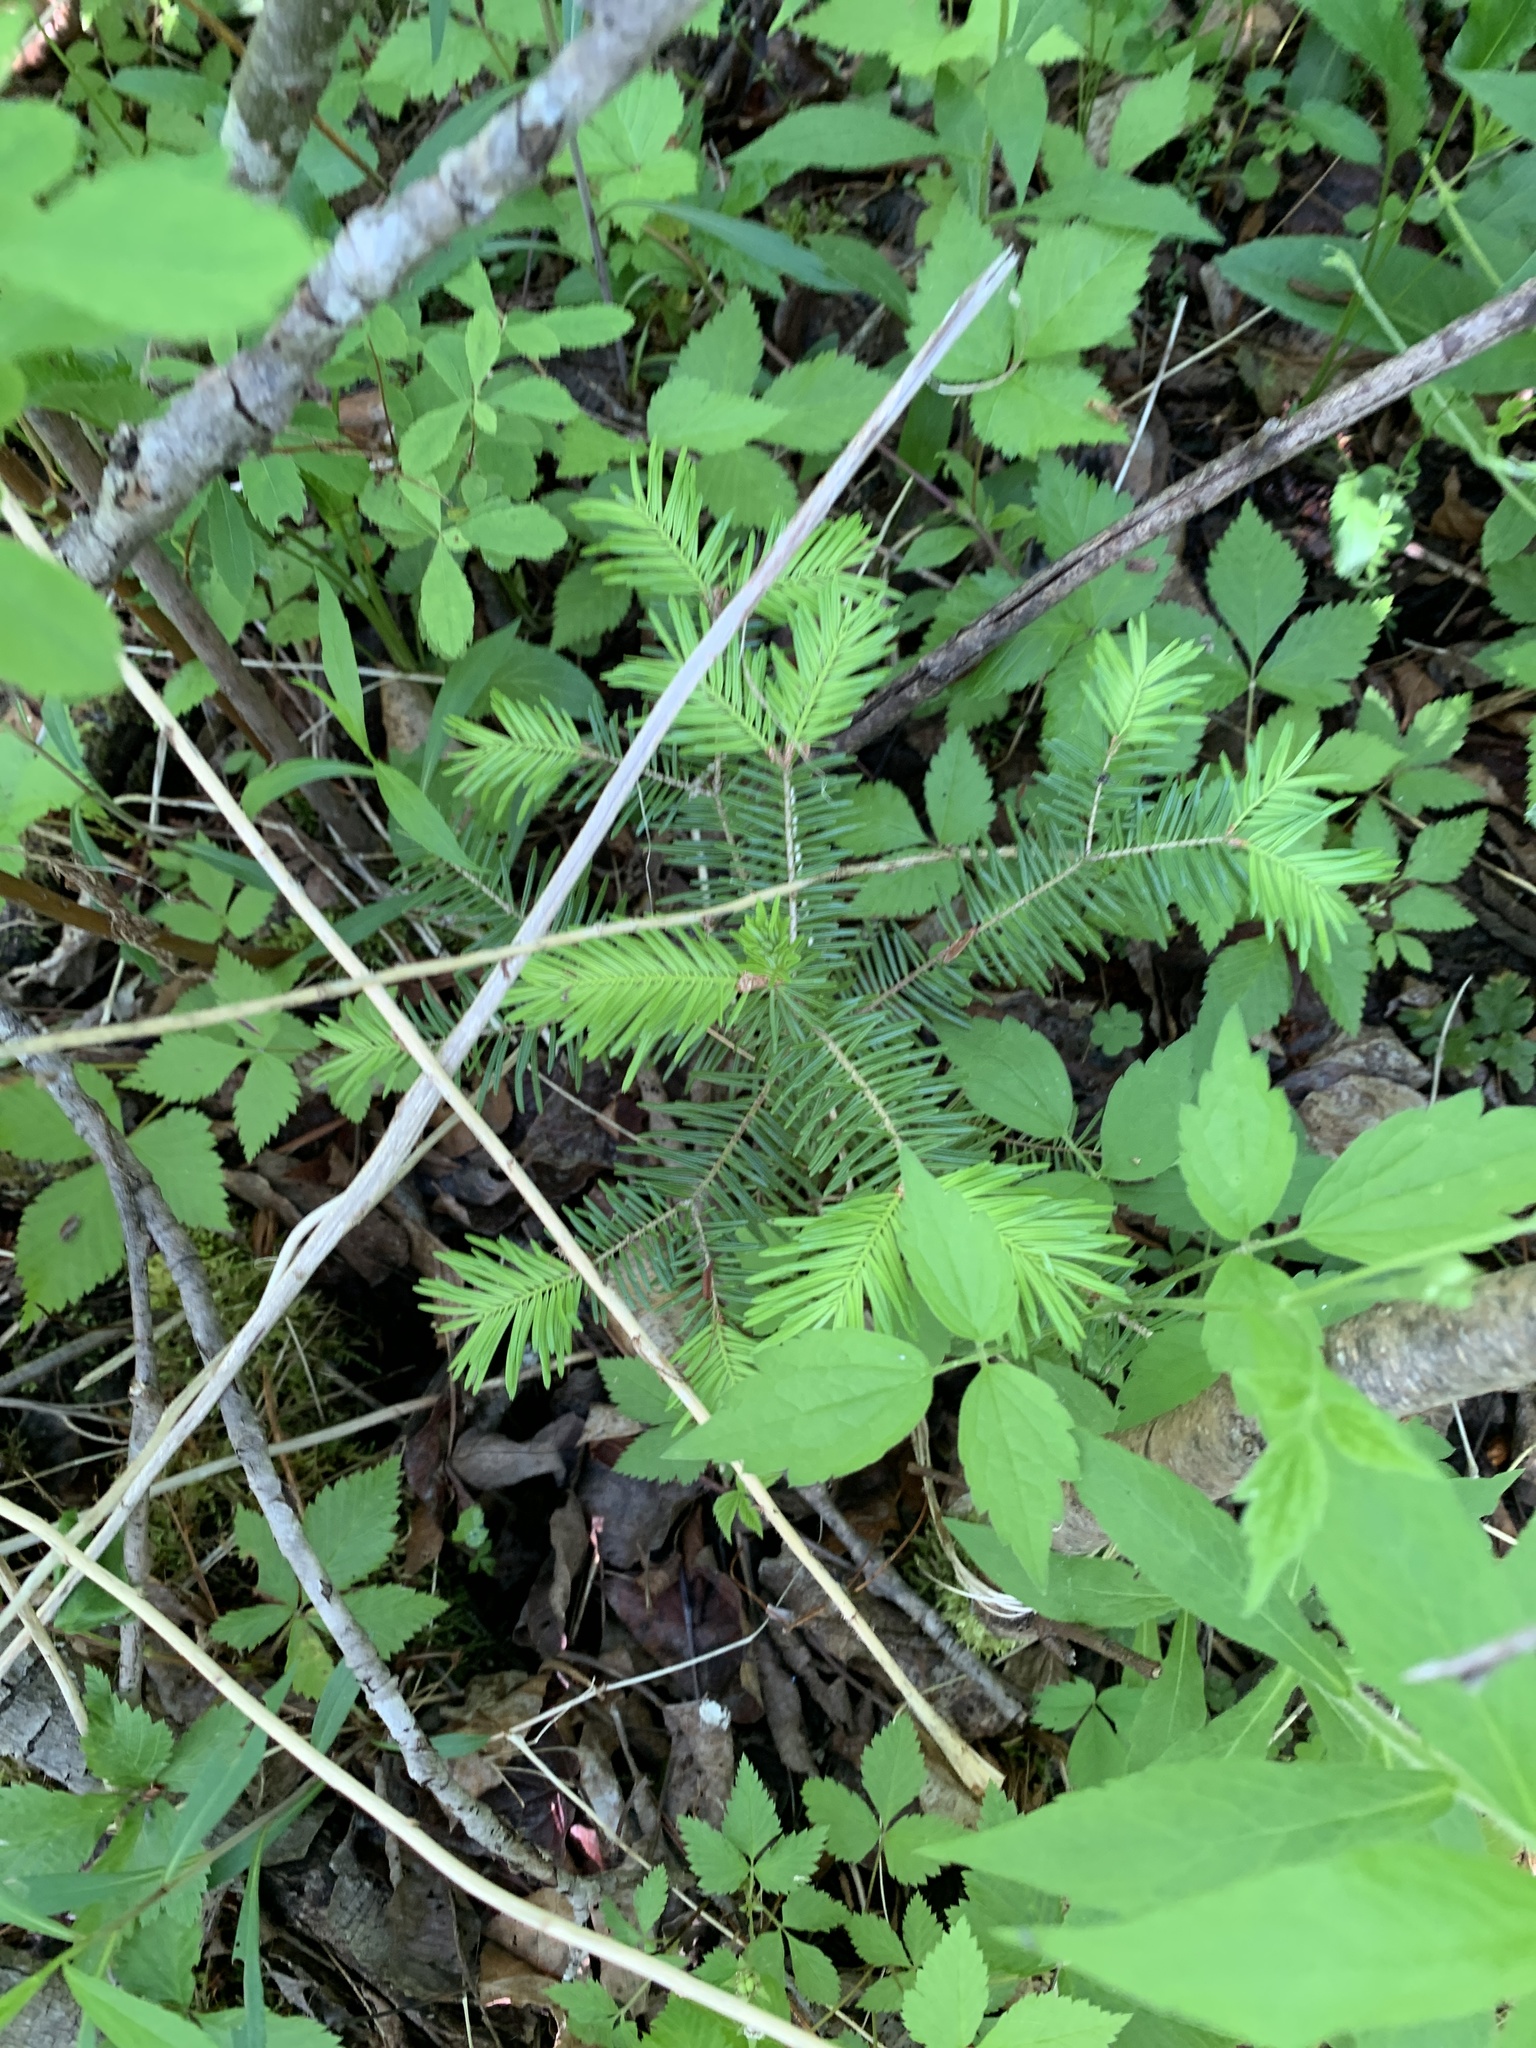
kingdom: Plantae
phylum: Tracheophyta
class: Pinopsida
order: Pinales
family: Pinaceae
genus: Abies
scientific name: Abies balsamea
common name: Balsam fir
